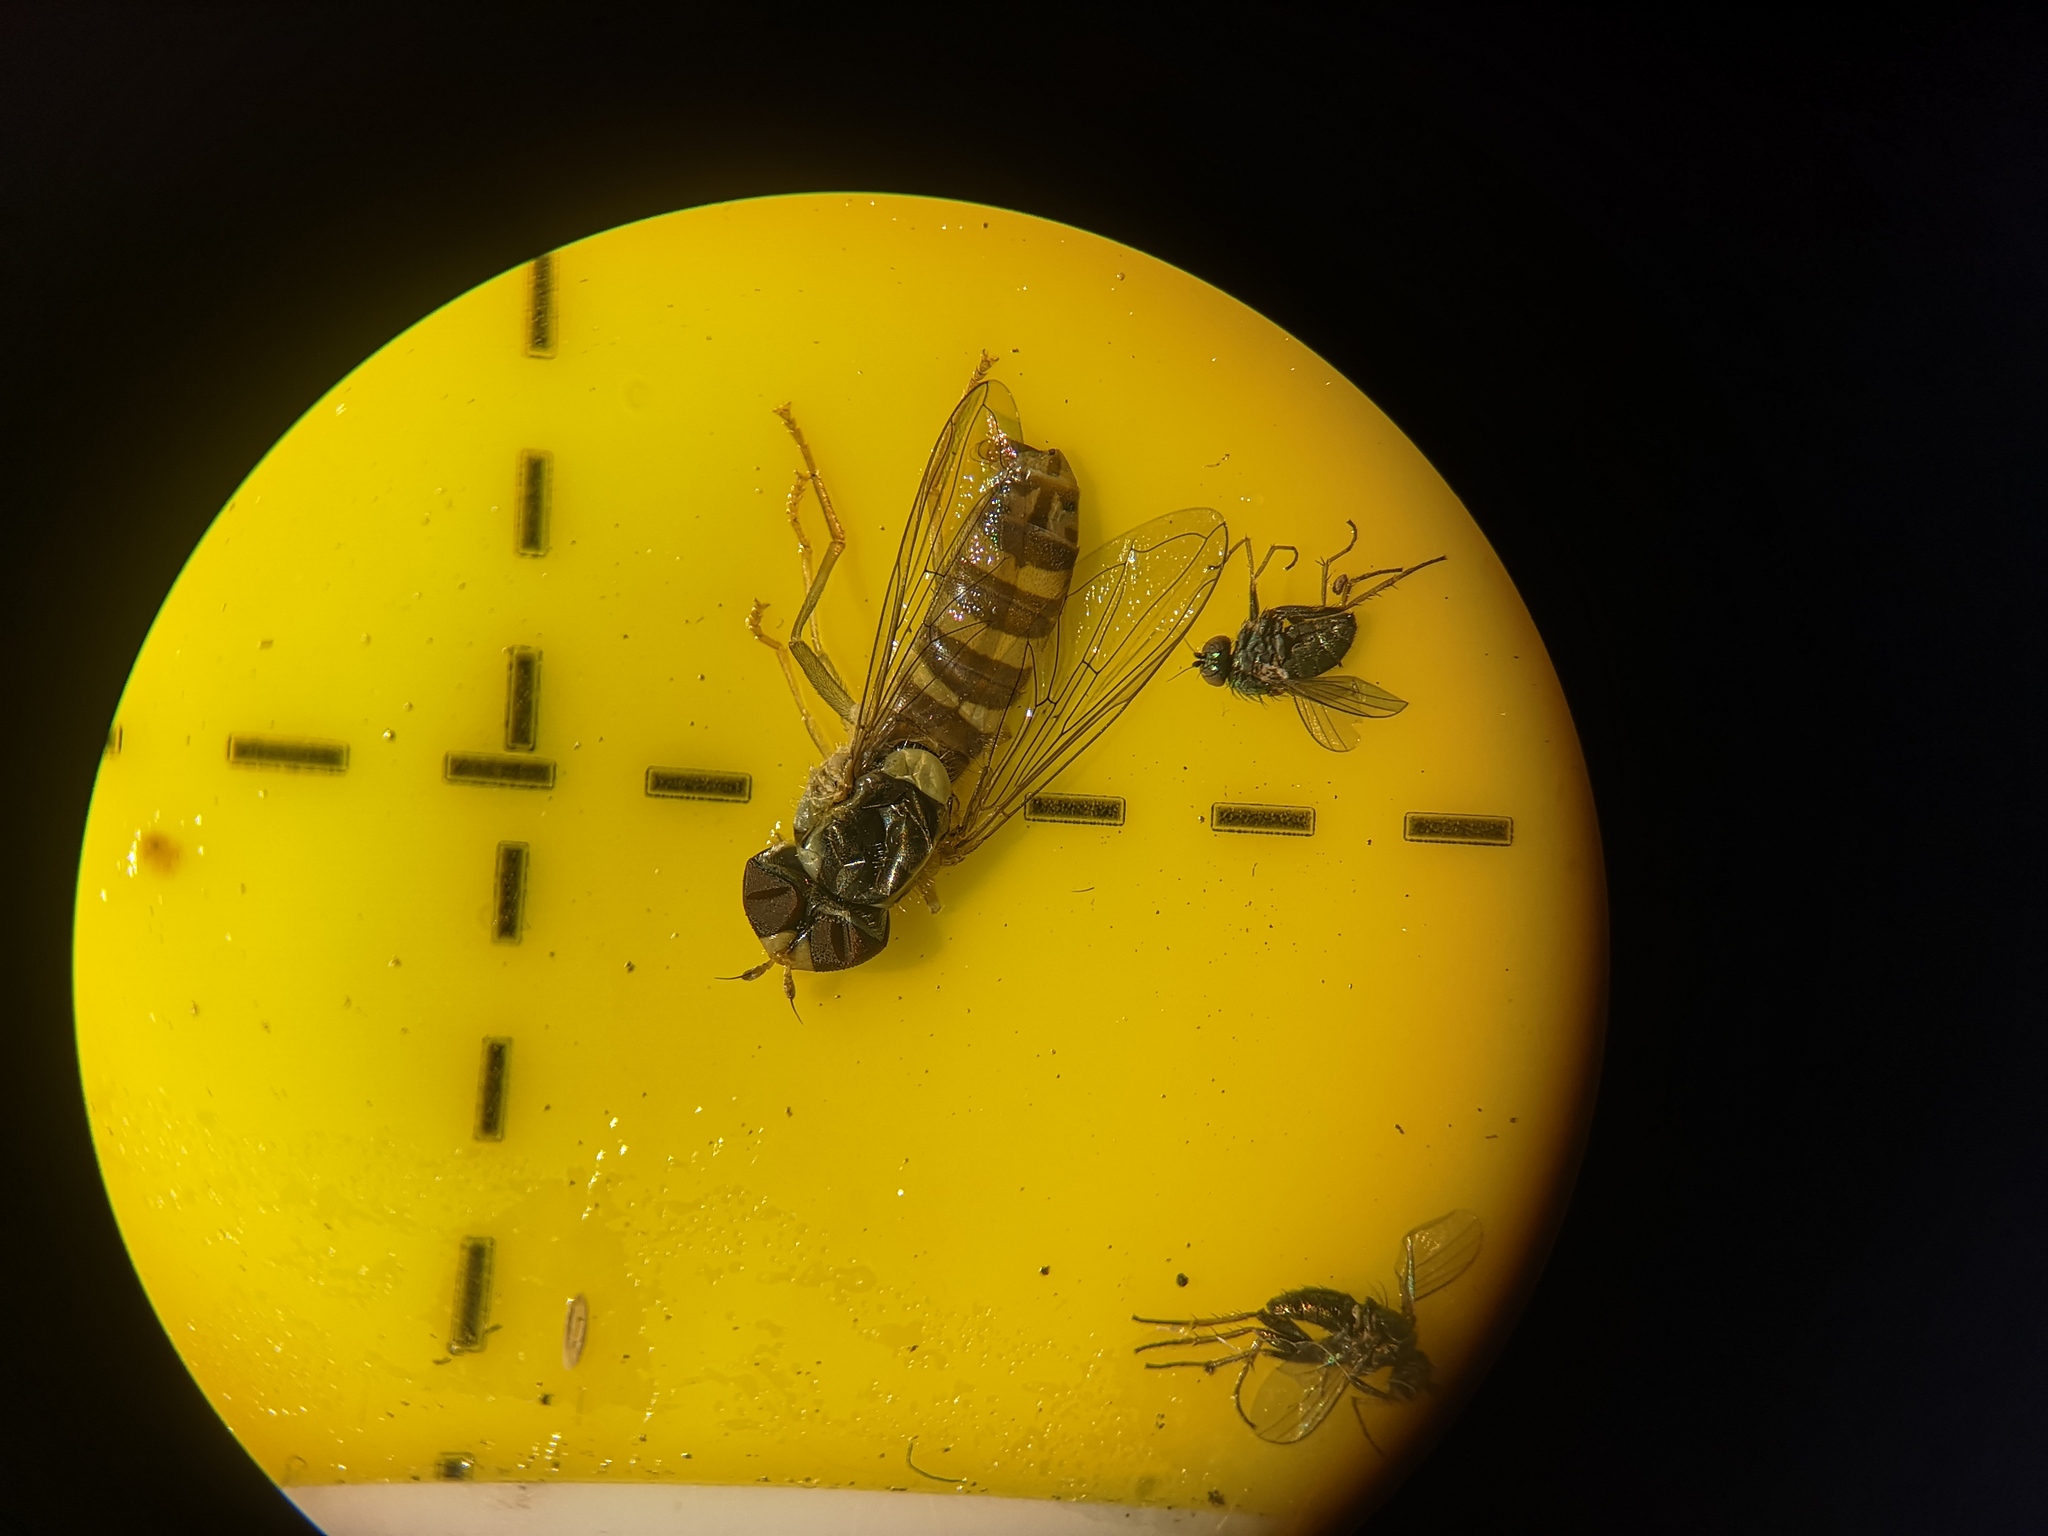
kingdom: Animalia
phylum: Arthropoda
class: Insecta
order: Diptera
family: Syrphidae
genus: Sphaerophoria
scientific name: Sphaerophoria
